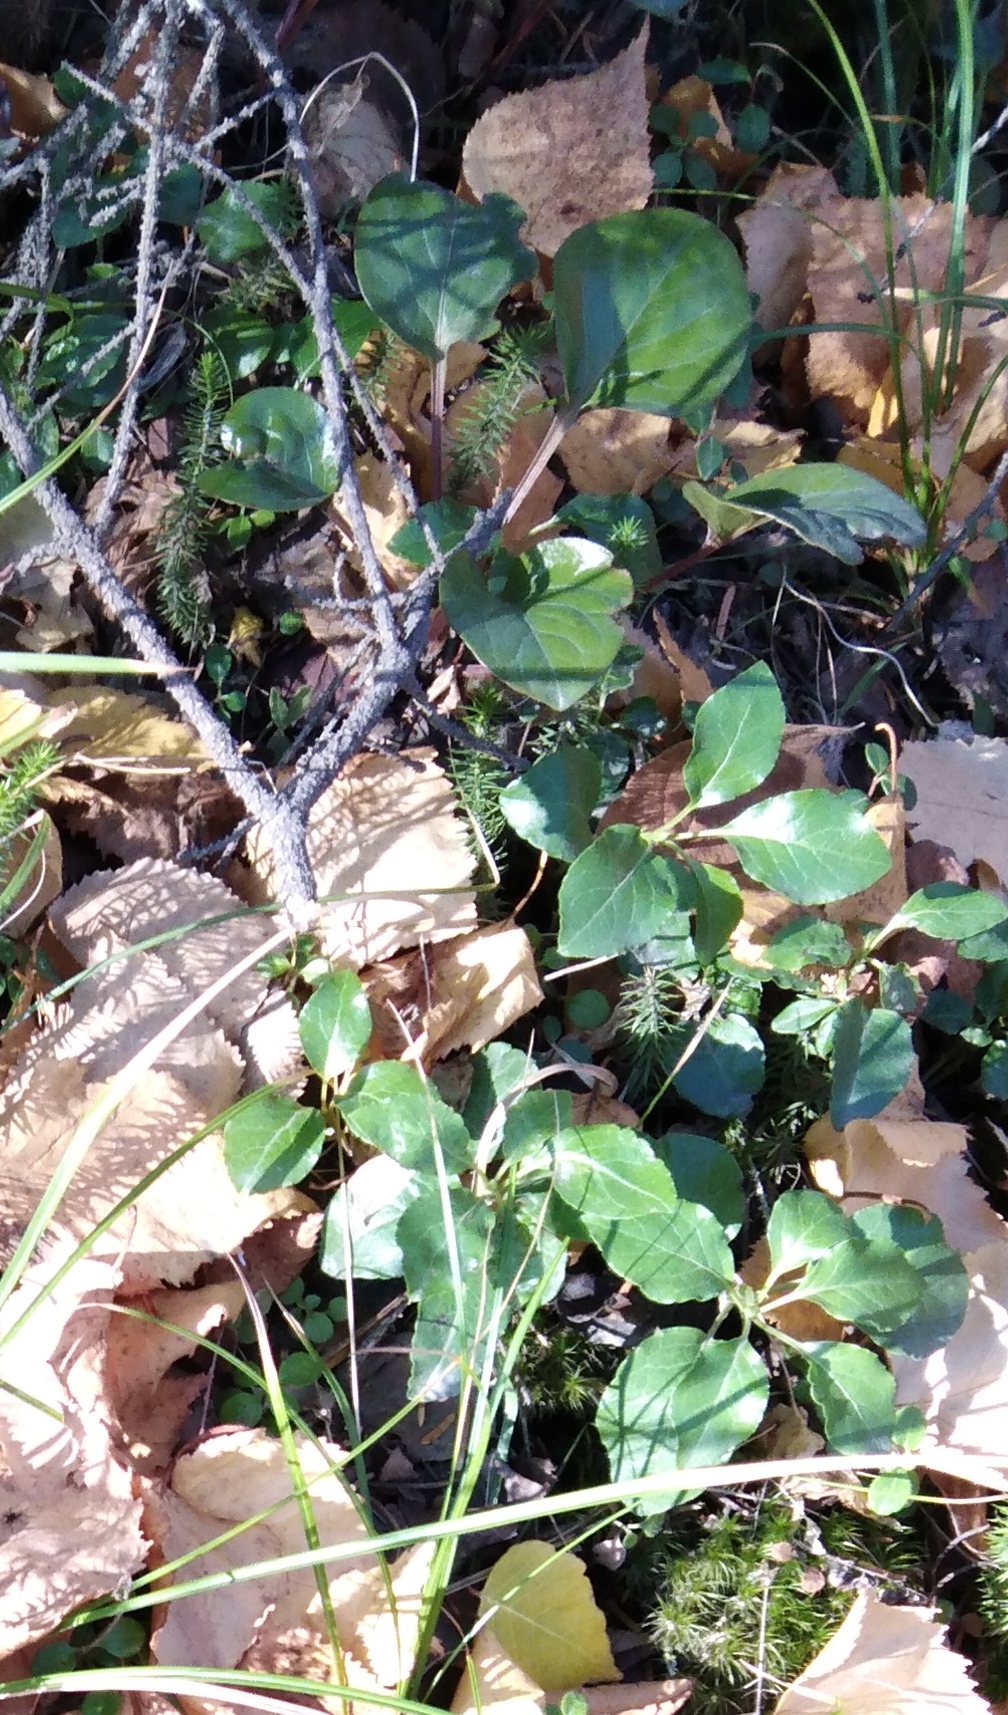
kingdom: Plantae
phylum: Tracheophyta
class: Magnoliopsida
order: Ericales
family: Ericaceae
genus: Orthilia
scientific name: Orthilia secunda
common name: One-sided orthilia
